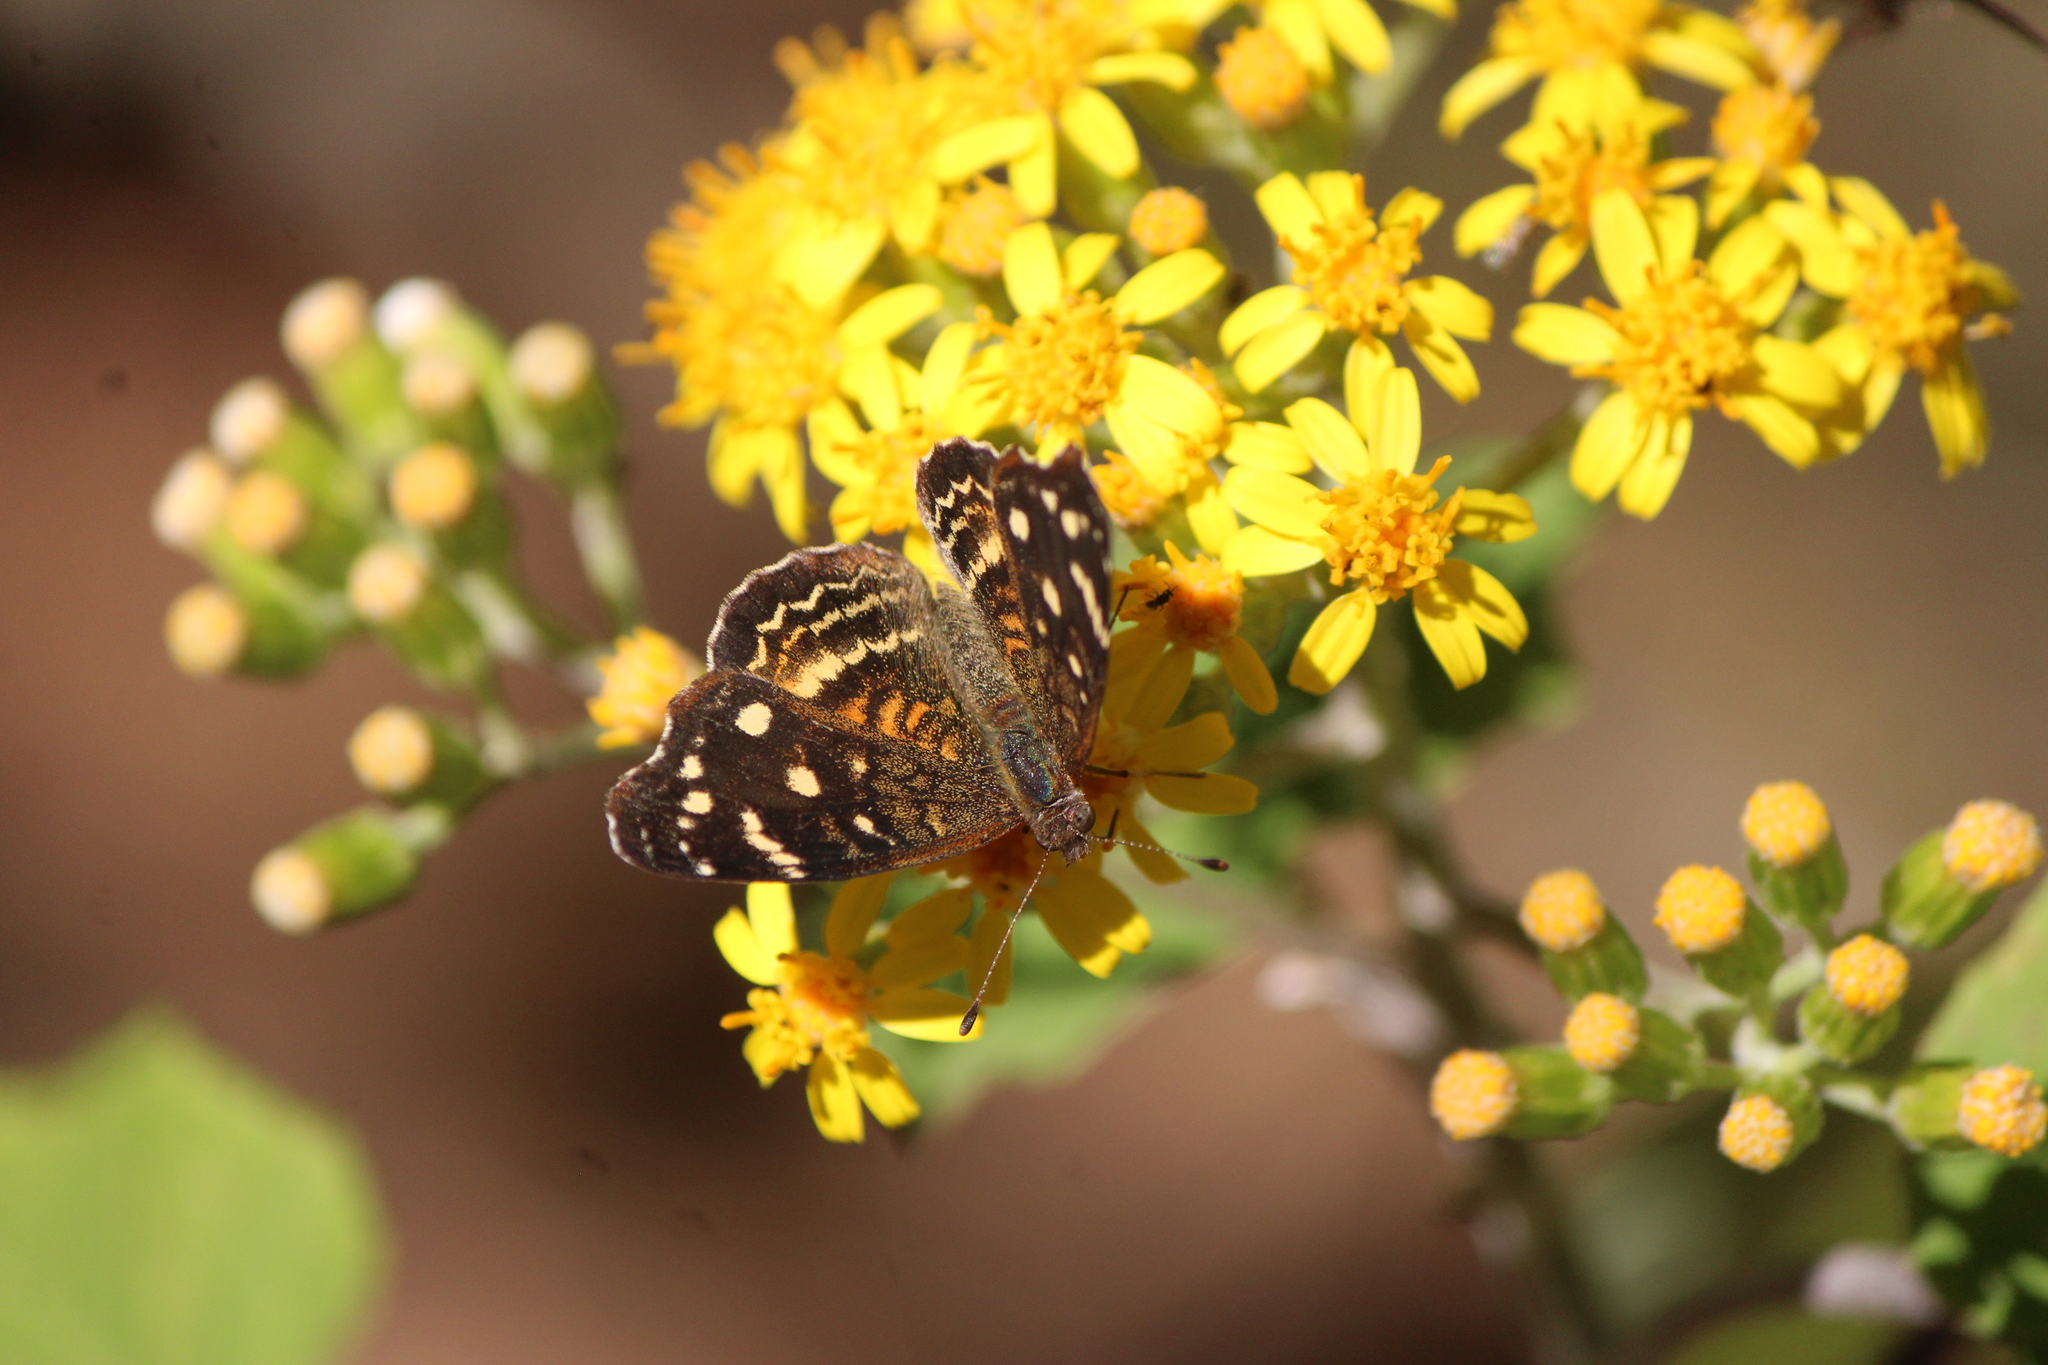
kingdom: Animalia
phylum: Arthropoda
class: Insecta
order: Lepidoptera
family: Nymphalidae
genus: Anthanassa
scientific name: Anthanassa drusilla
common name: Orange-patched crescent
